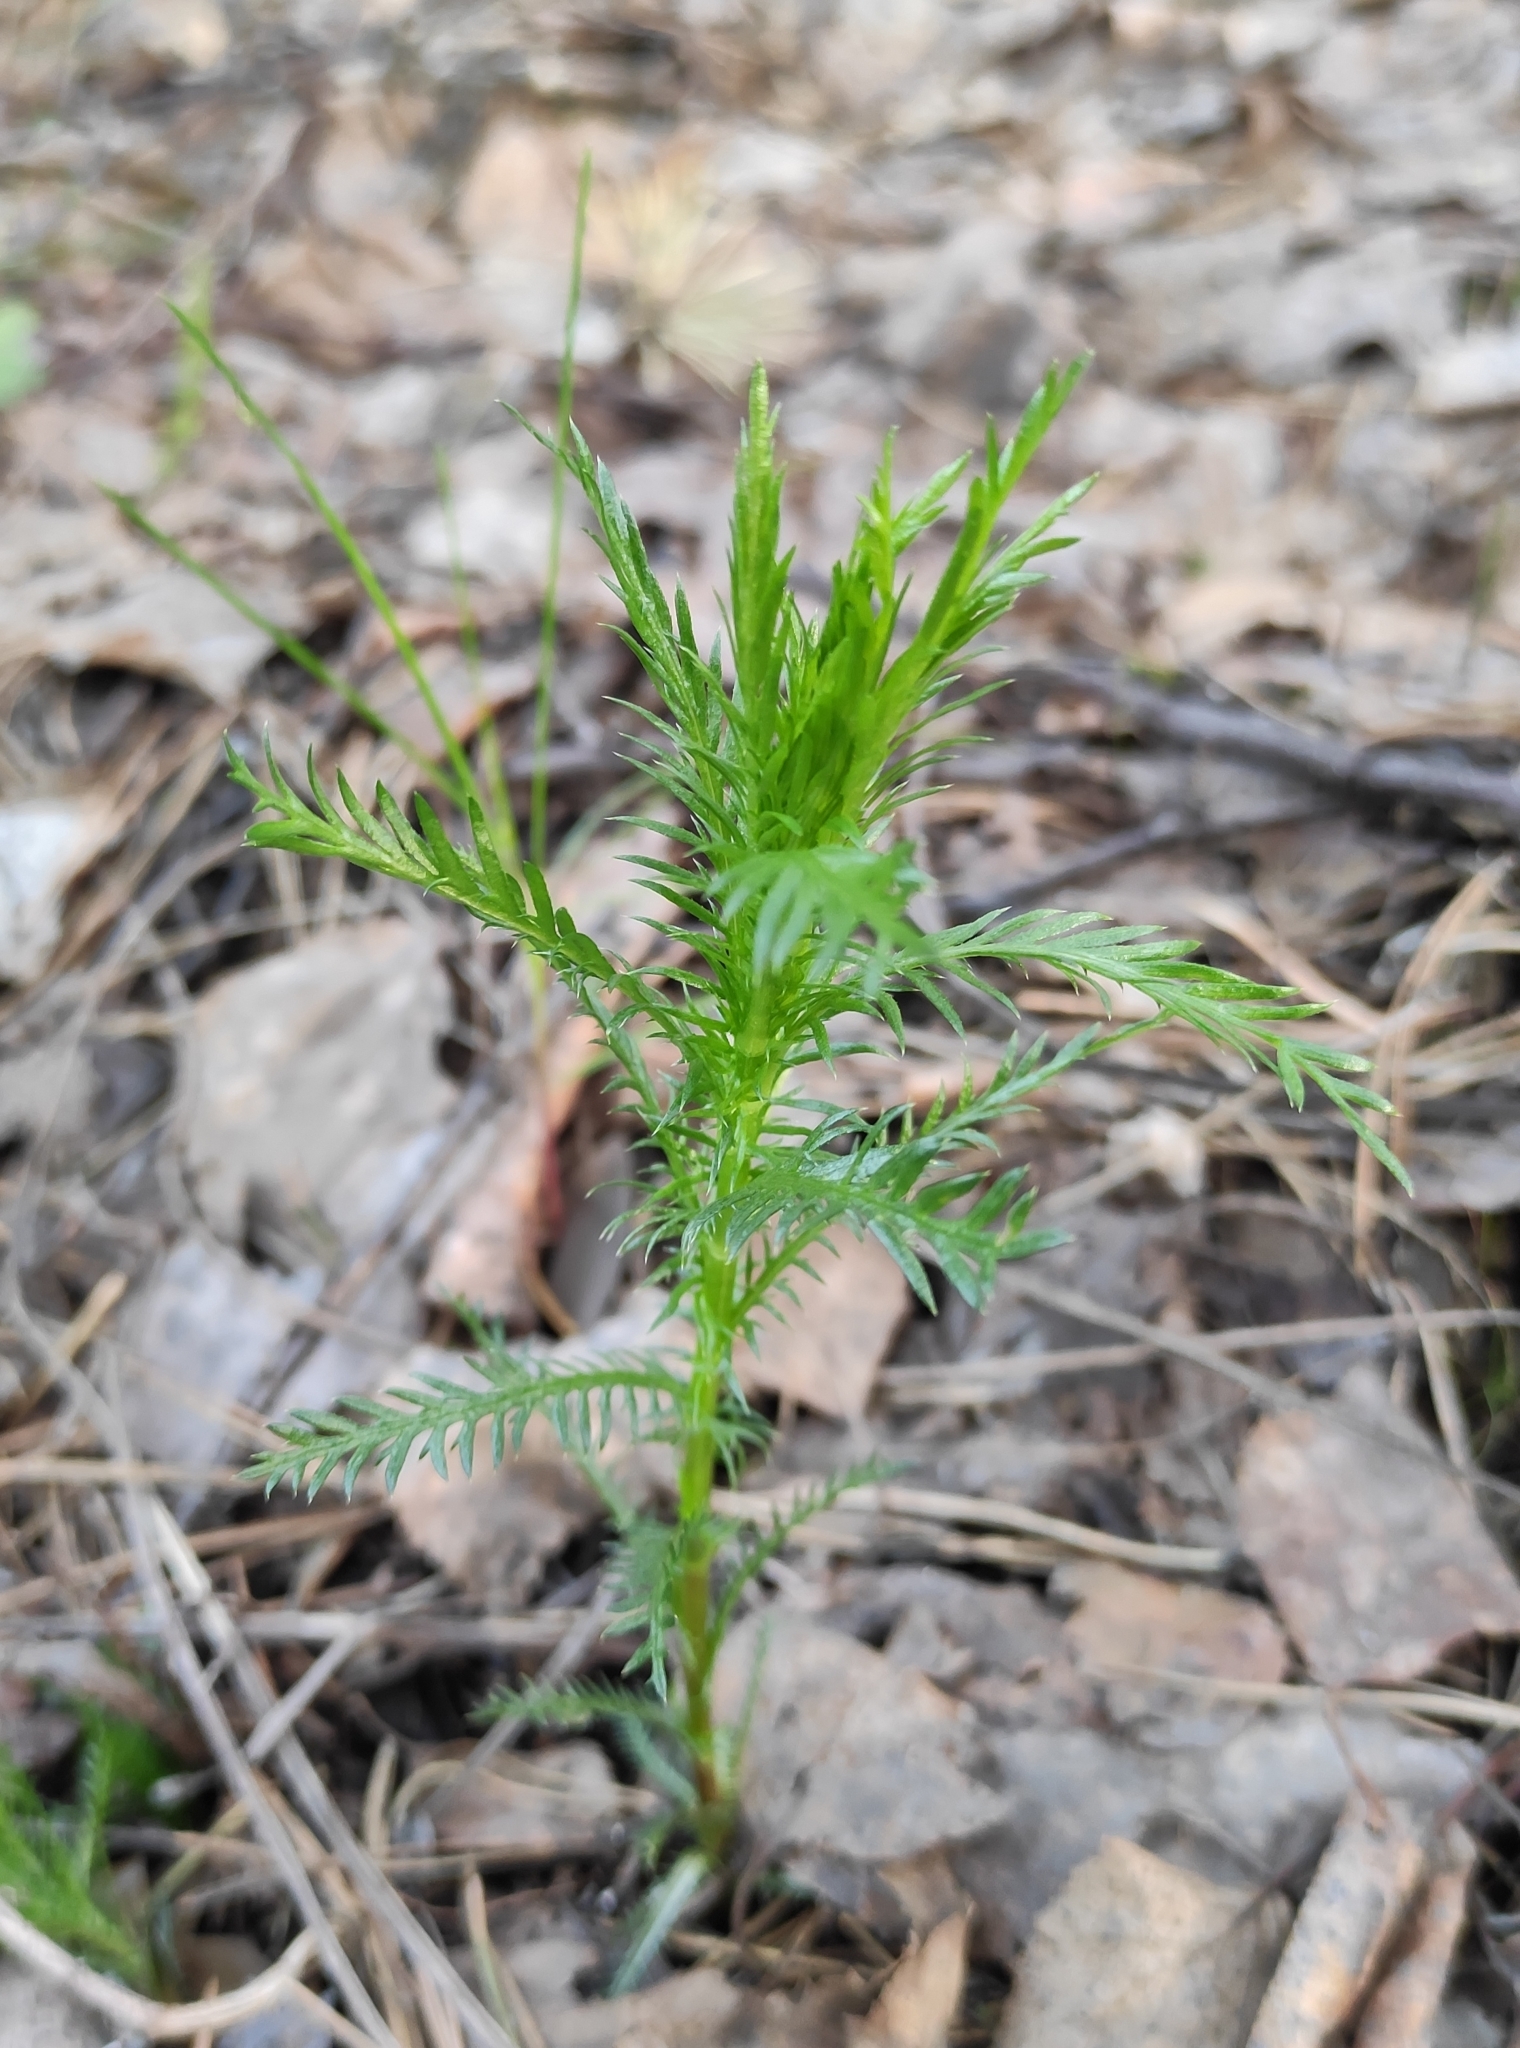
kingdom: Plantae
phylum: Tracheophyta
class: Magnoliopsida
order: Asterales
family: Asteraceae
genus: Achillea
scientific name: Achillea impatiens
